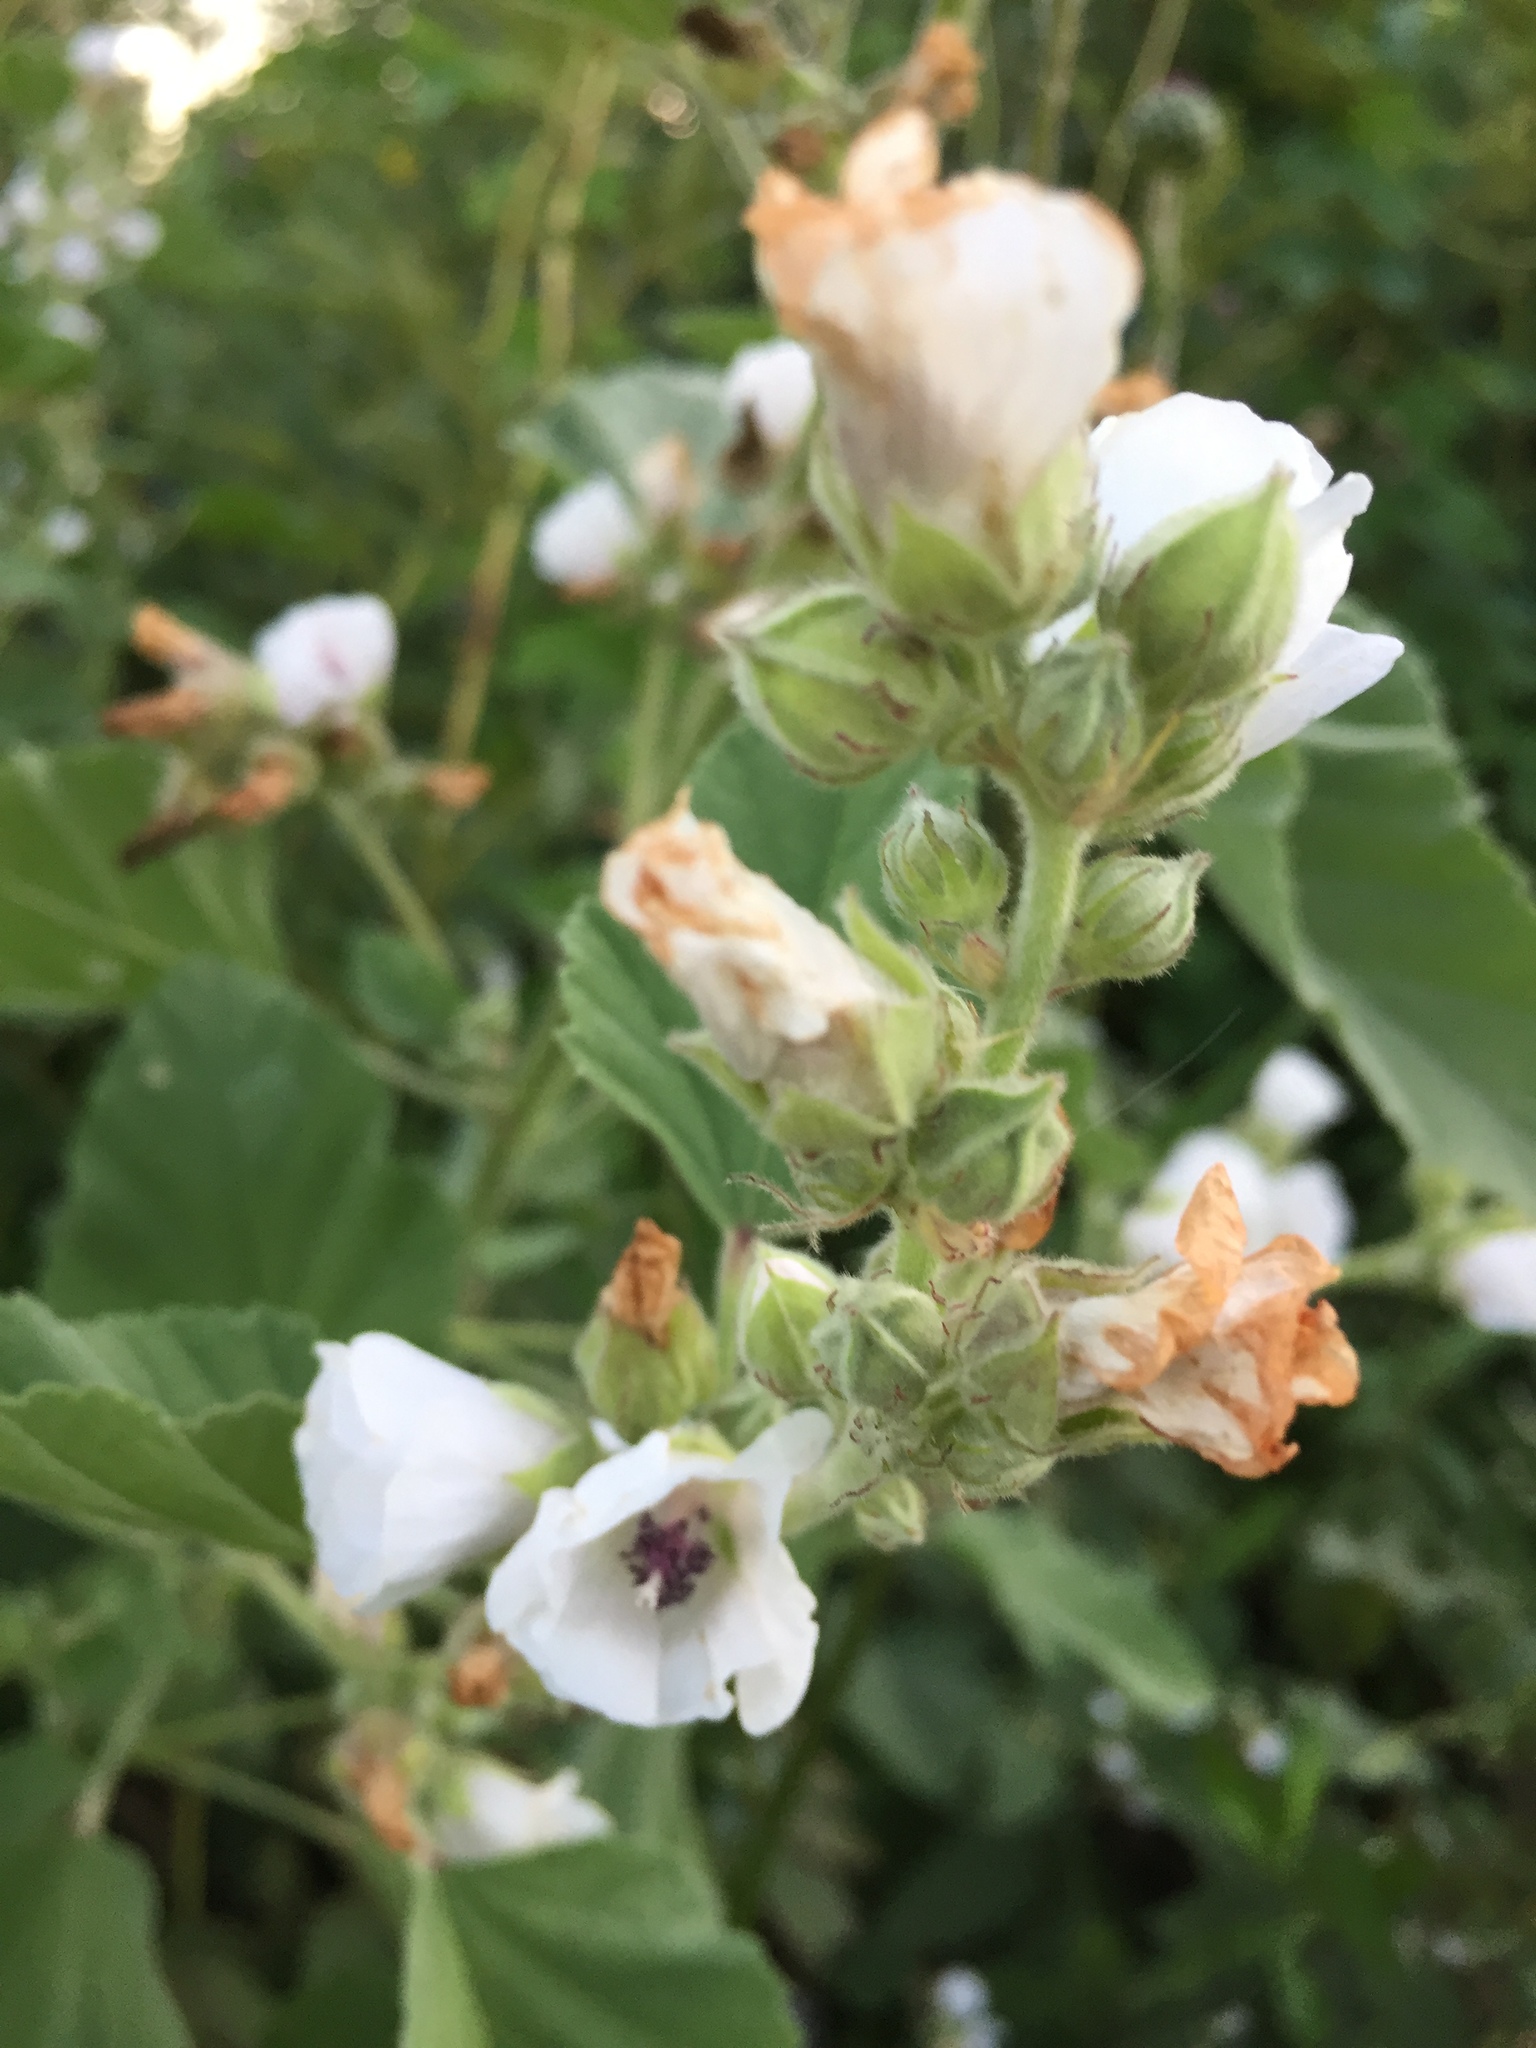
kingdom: Plantae
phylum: Tracheophyta
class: Magnoliopsida
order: Malvales
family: Malvaceae
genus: Althaea
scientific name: Althaea officinalis
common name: Marsh-mallow
